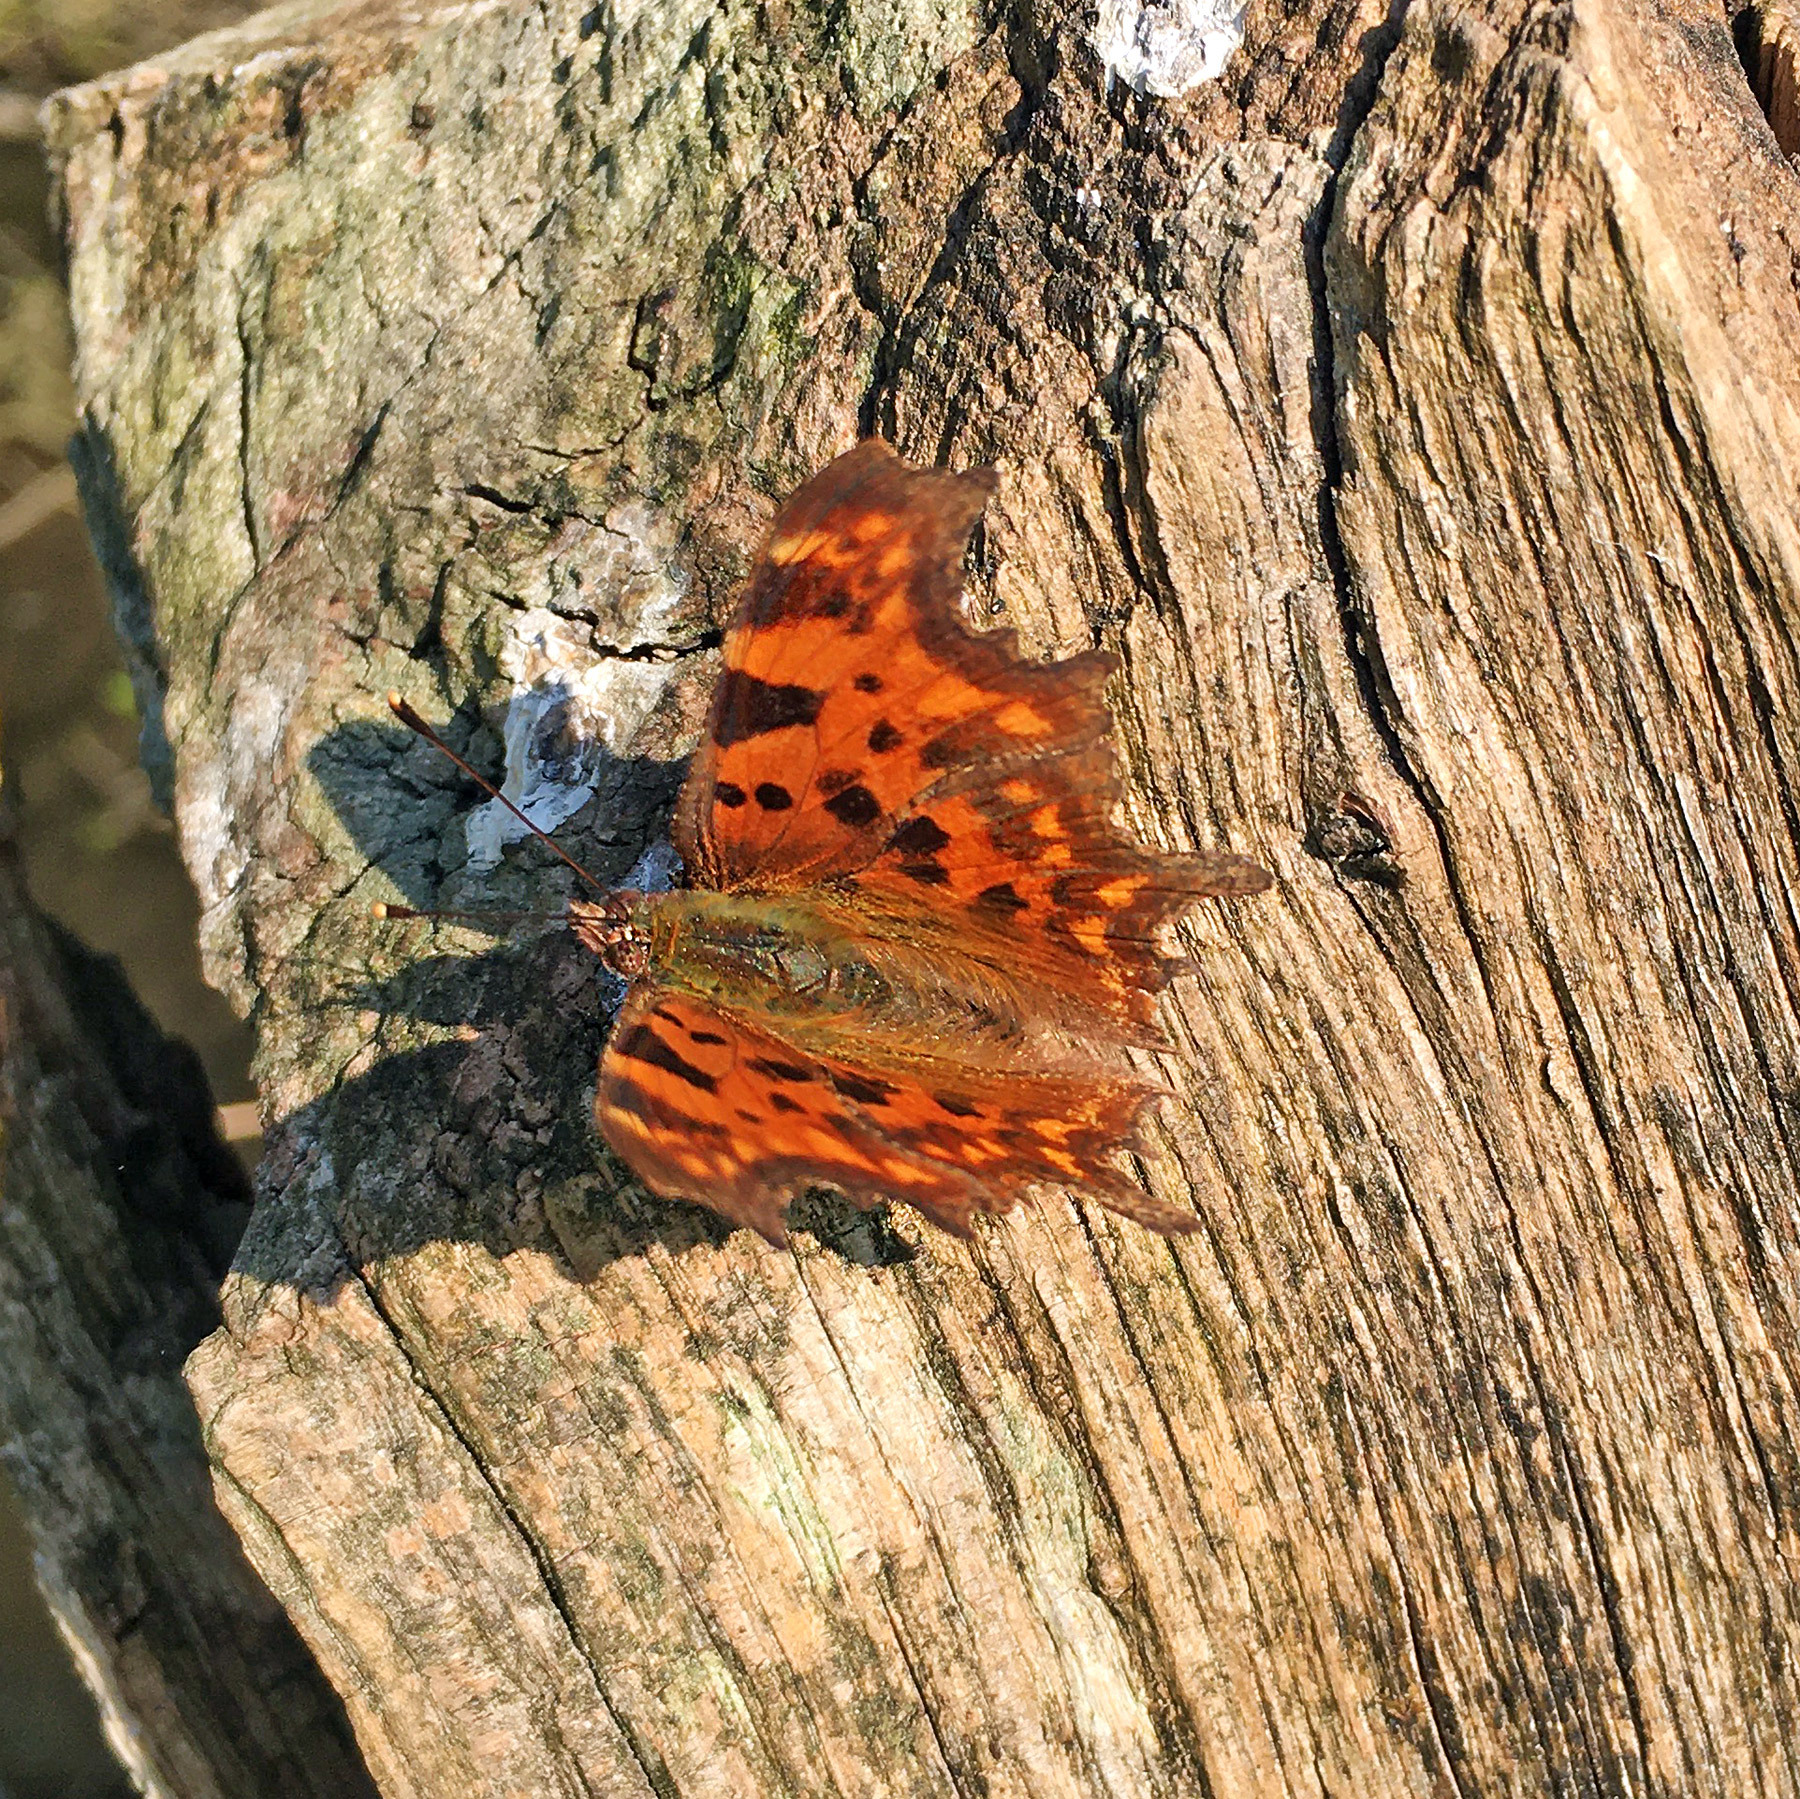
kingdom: Animalia
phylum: Arthropoda
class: Insecta
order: Lepidoptera
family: Nymphalidae
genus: Polygonia
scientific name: Polygonia c-album
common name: Comma
